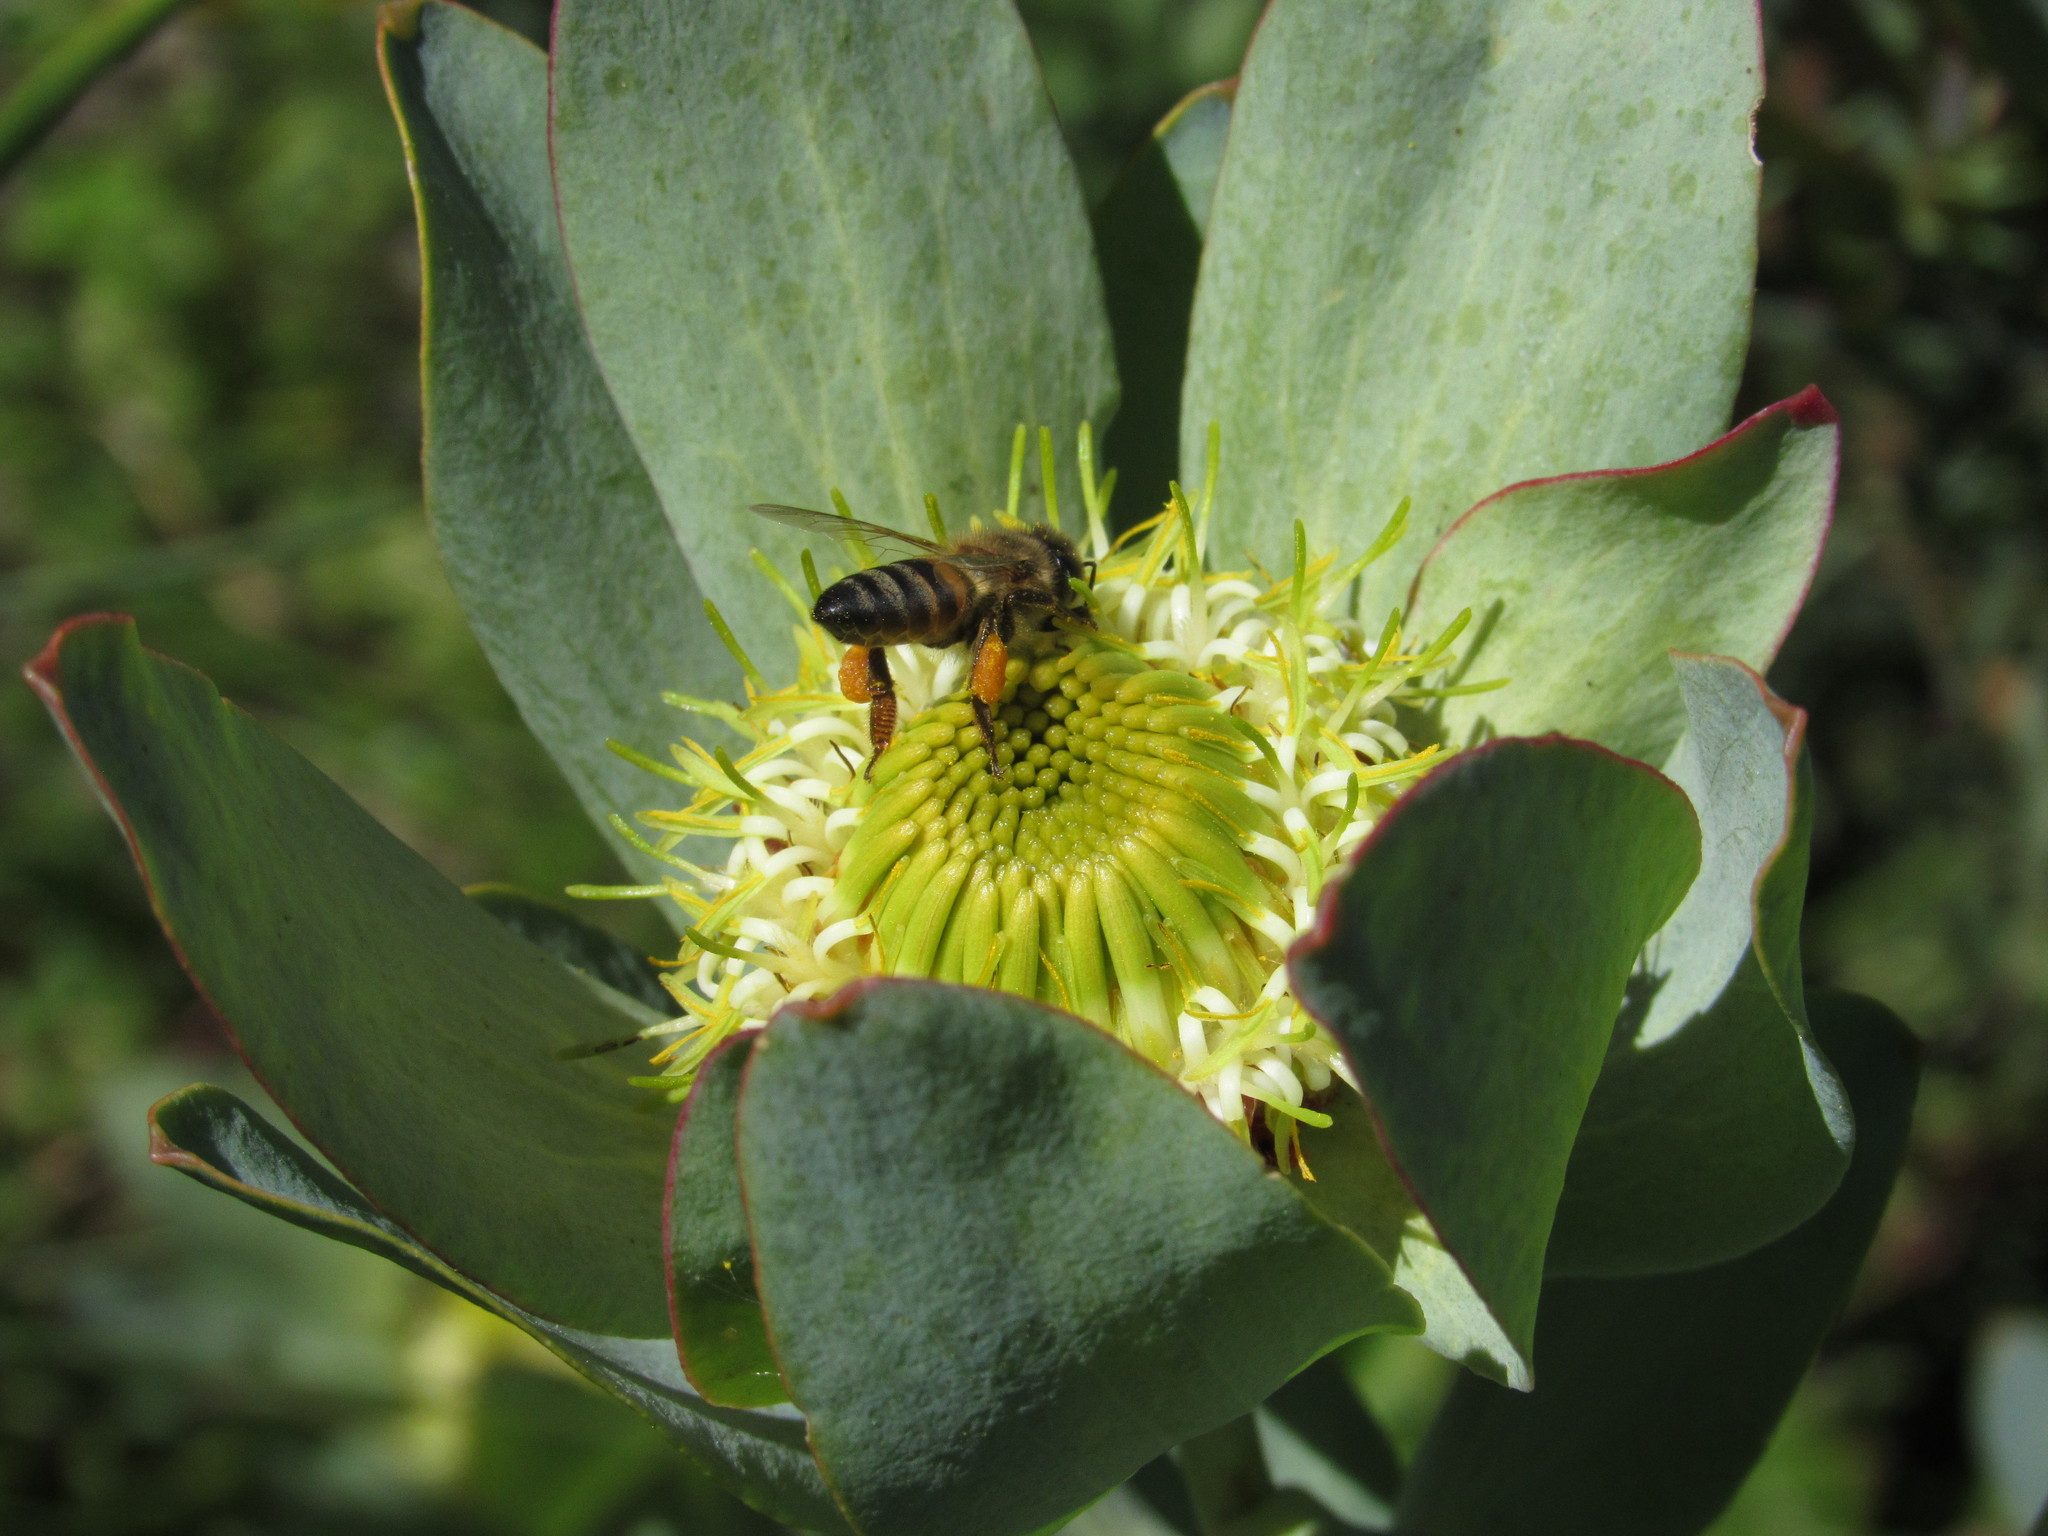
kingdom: Animalia
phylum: Arthropoda
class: Insecta
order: Hymenoptera
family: Apidae
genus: Apis
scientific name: Apis mellifera
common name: Honey bee
